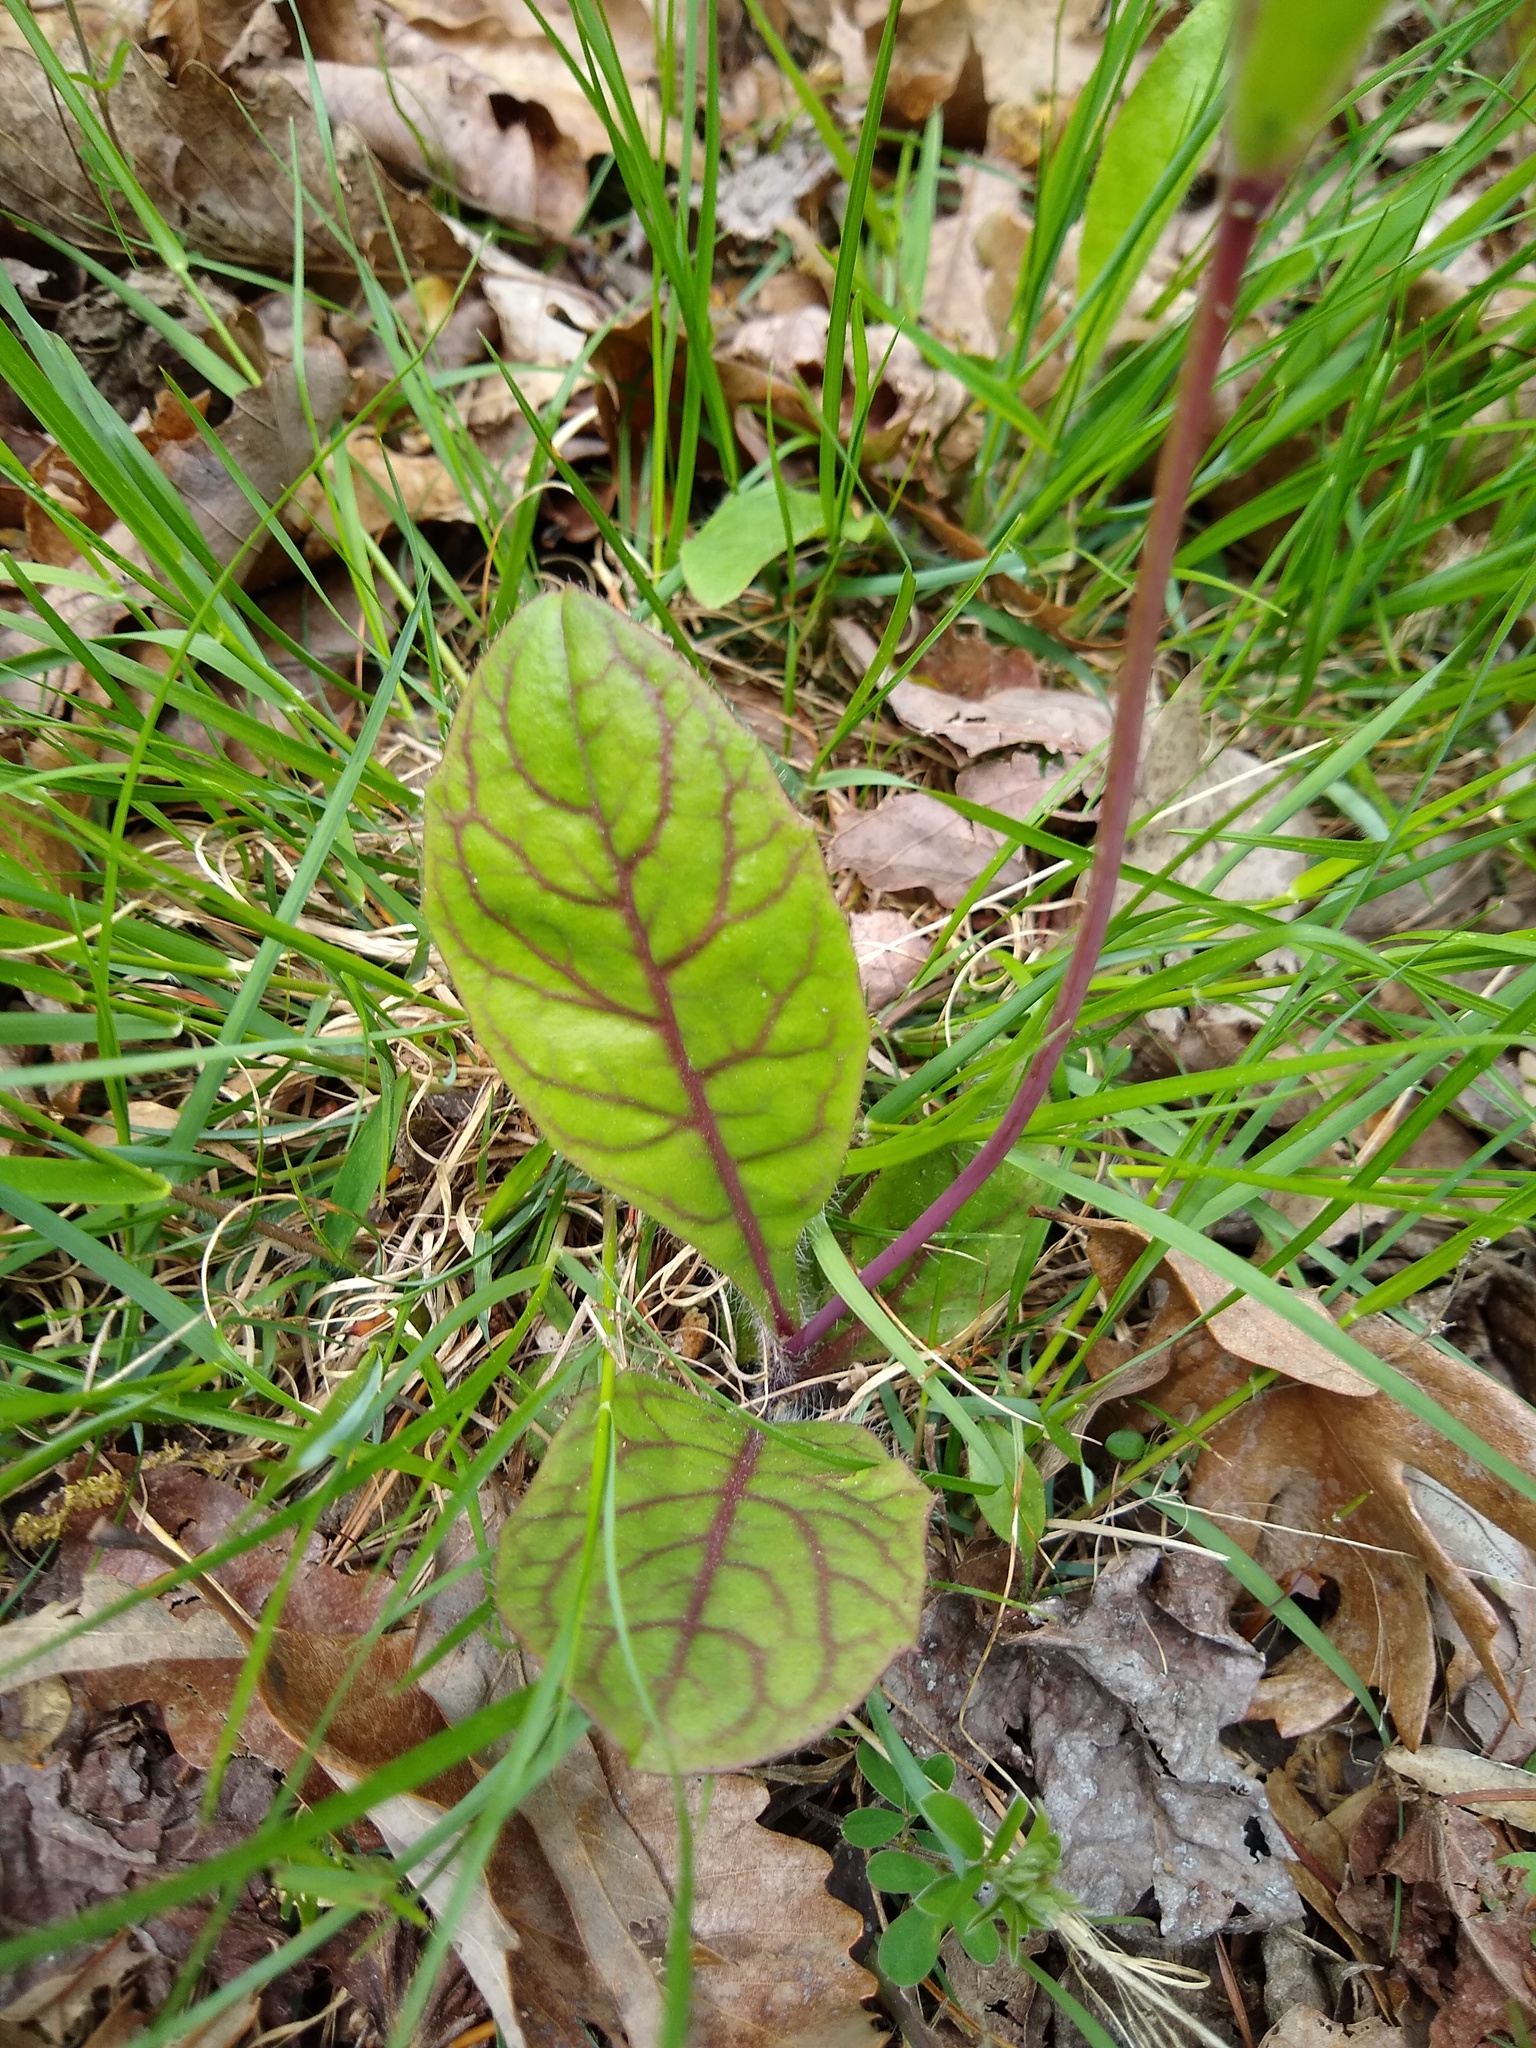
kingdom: Plantae
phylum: Tracheophyta
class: Magnoliopsida
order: Asterales
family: Asteraceae
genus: Hieracium
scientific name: Hieracium venosum
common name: Rattlesnake hawkweed
